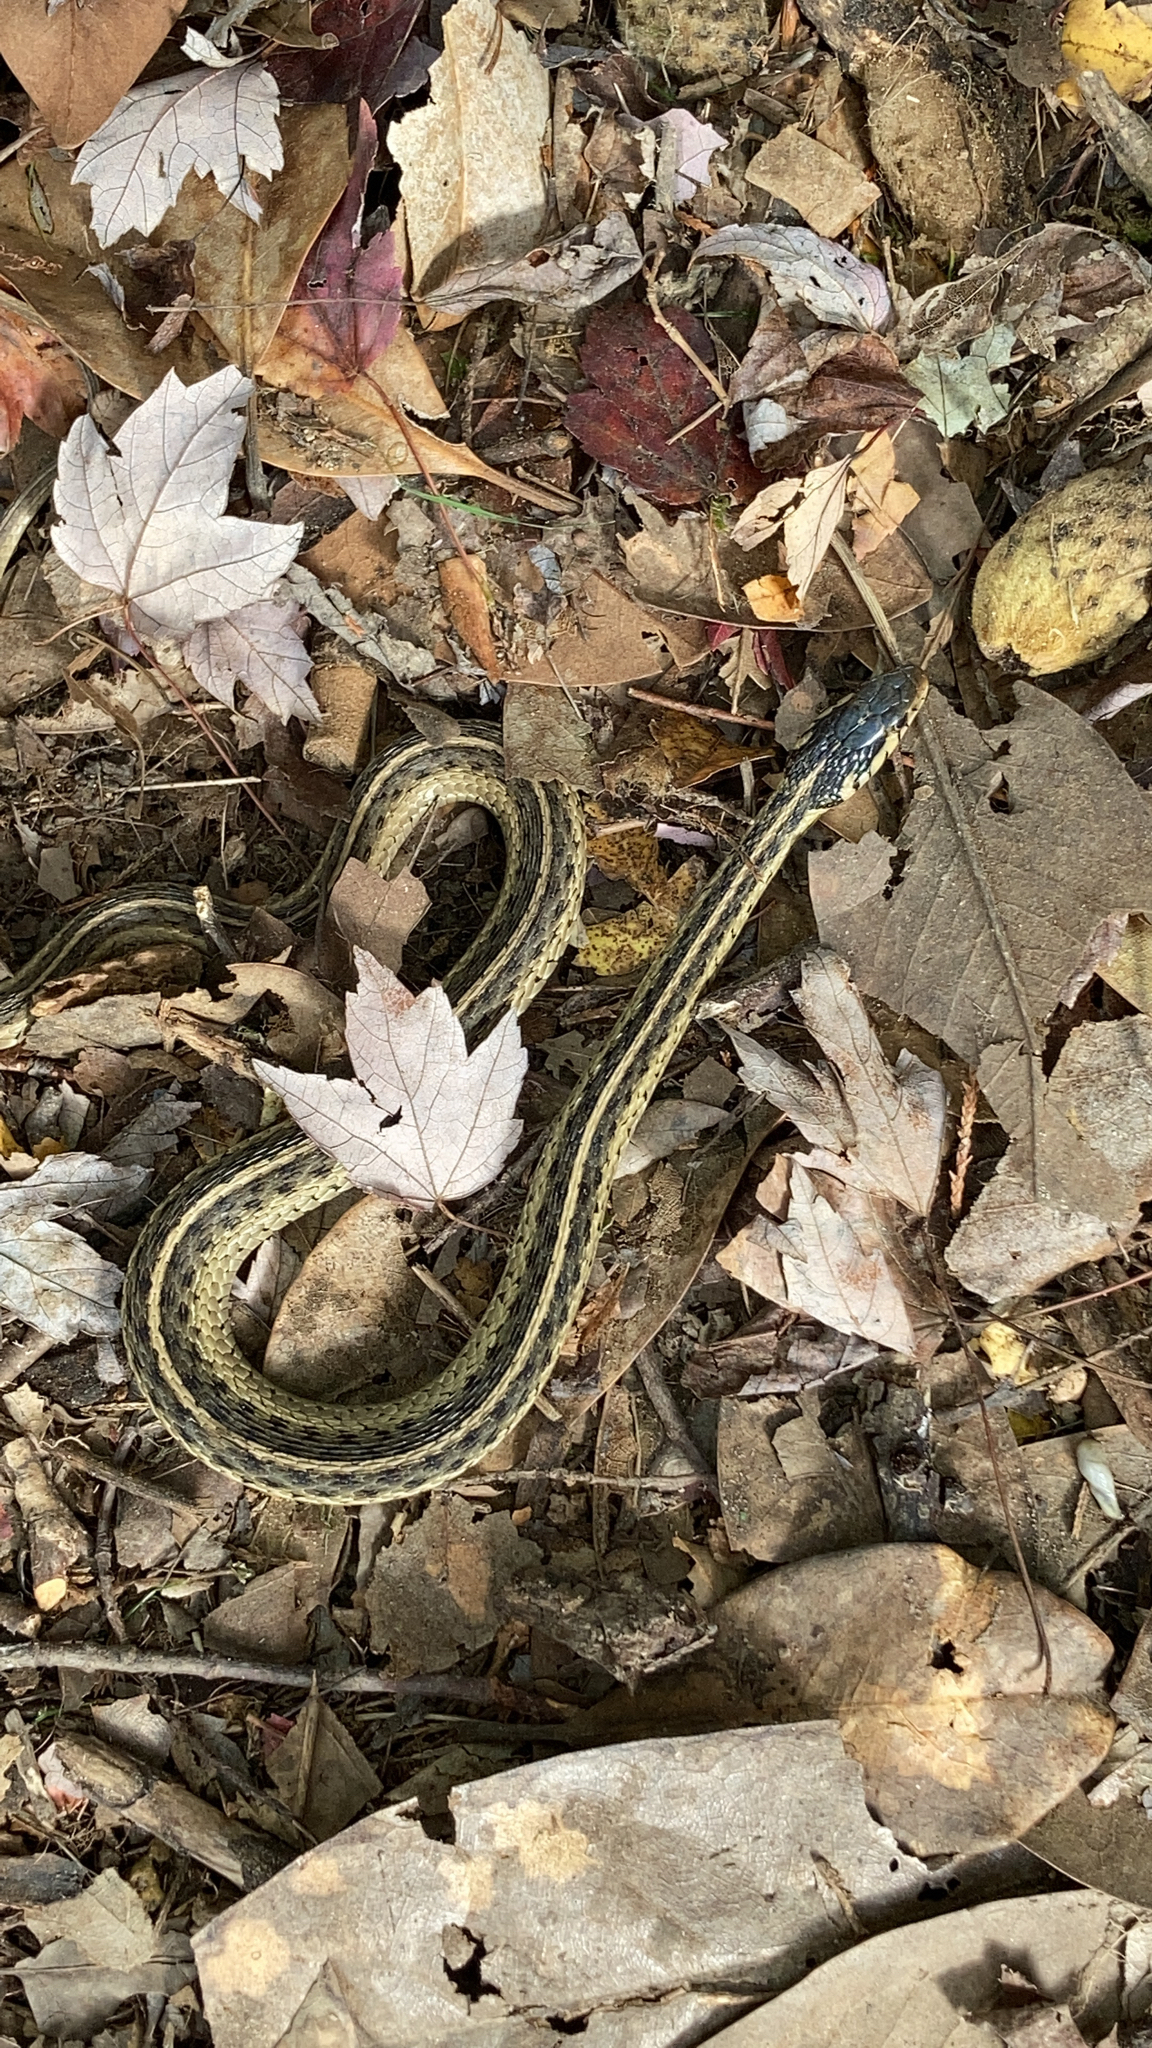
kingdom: Animalia
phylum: Chordata
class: Squamata
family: Colubridae
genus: Thamnophis
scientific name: Thamnophis sirtalis
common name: Common garter snake
